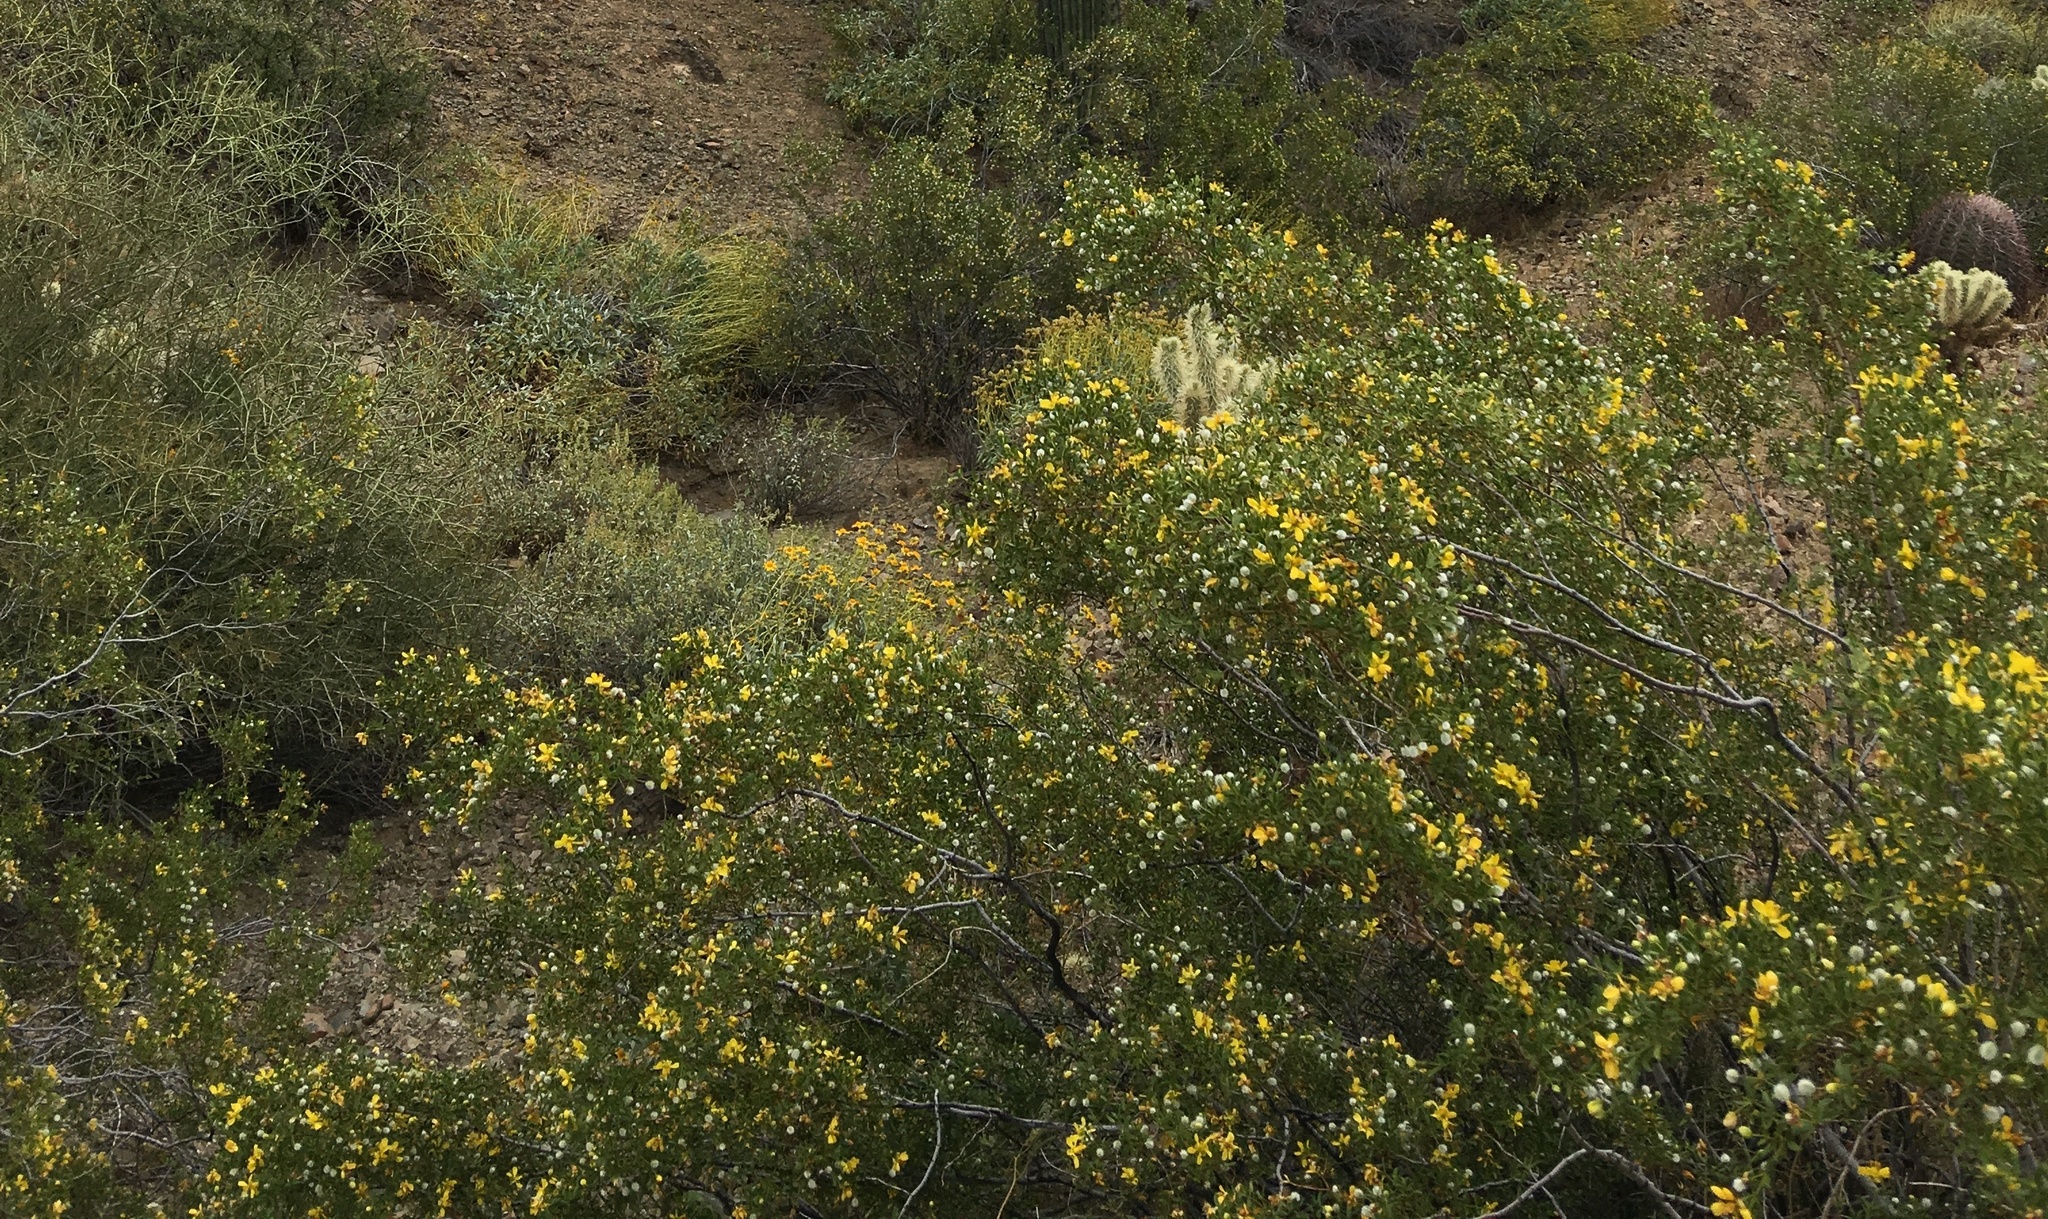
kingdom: Plantae
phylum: Tracheophyta
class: Magnoliopsida
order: Zygophyllales
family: Zygophyllaceae
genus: Larrea
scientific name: Larrea tridentata
